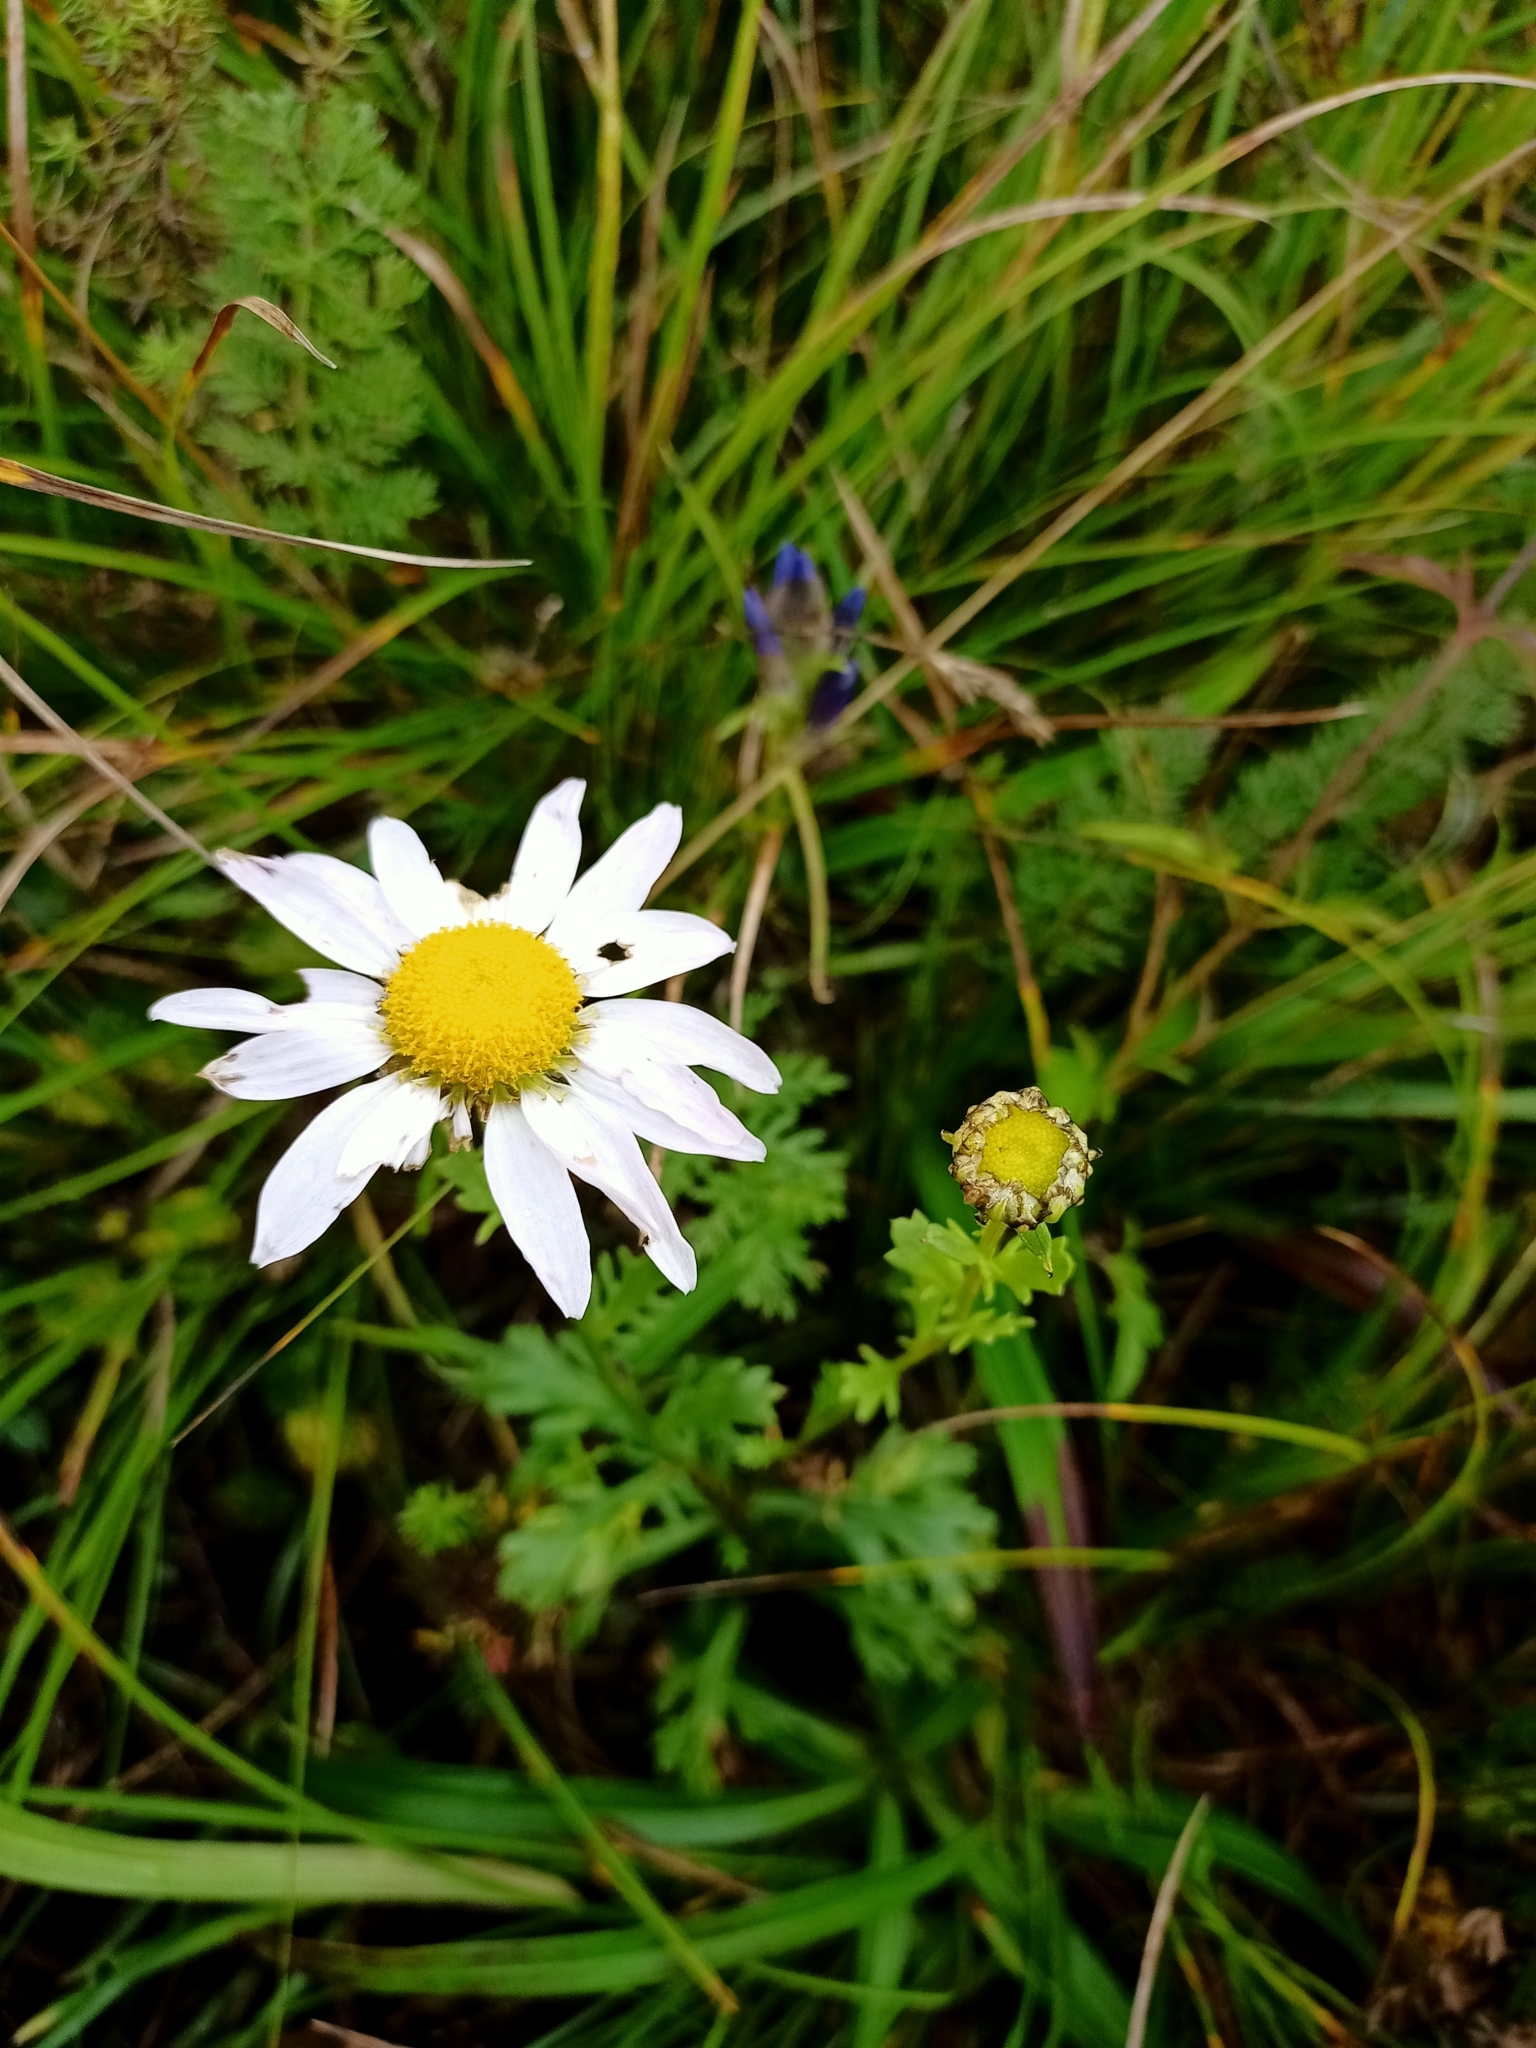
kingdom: Plantae
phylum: Tracheophyta
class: Magnoliopsida
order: Asterales
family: Asteraceae
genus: Chrysanthemum
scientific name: Chrysanthemum zawadzkii
